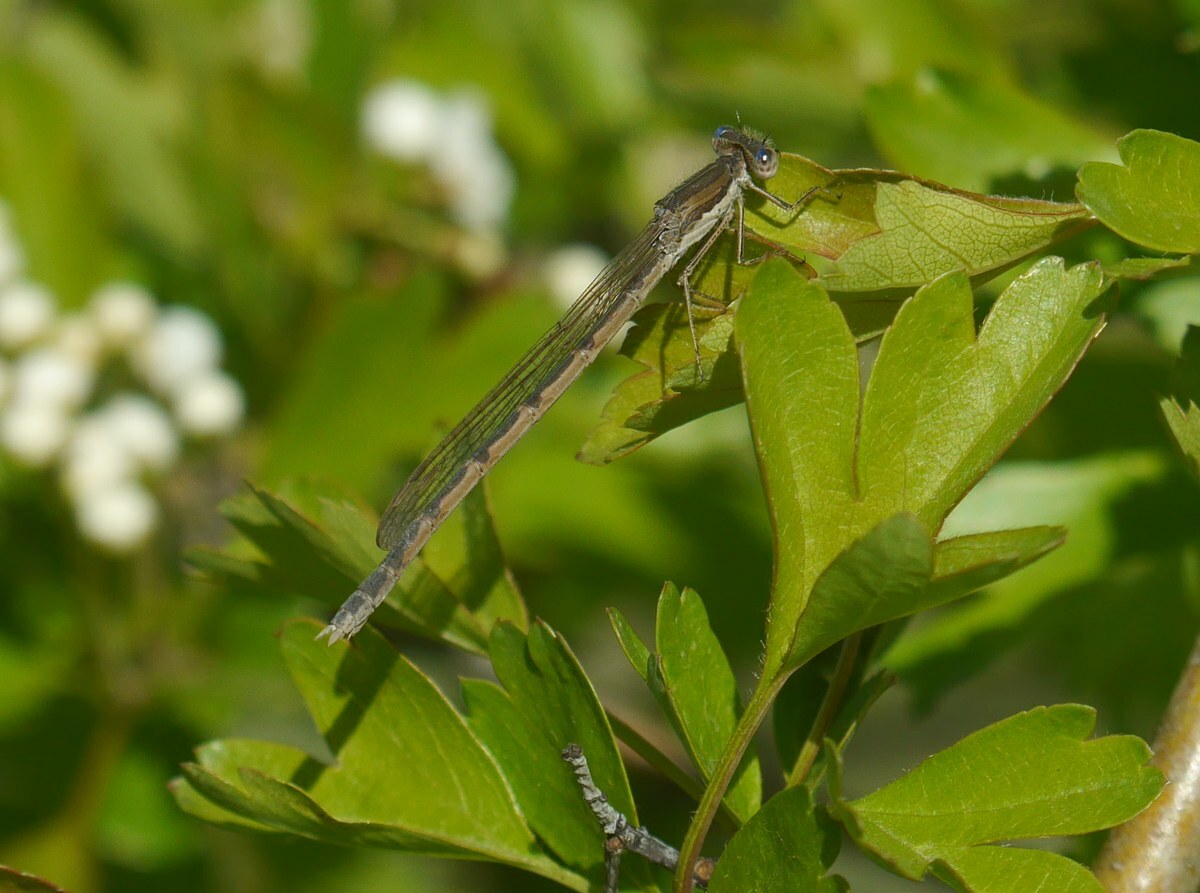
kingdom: Animalia
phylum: Arthropoda
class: Insecta
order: Odonata
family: Lestidae
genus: Sympecma
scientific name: Sympecma fusca
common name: Common winter damsel
